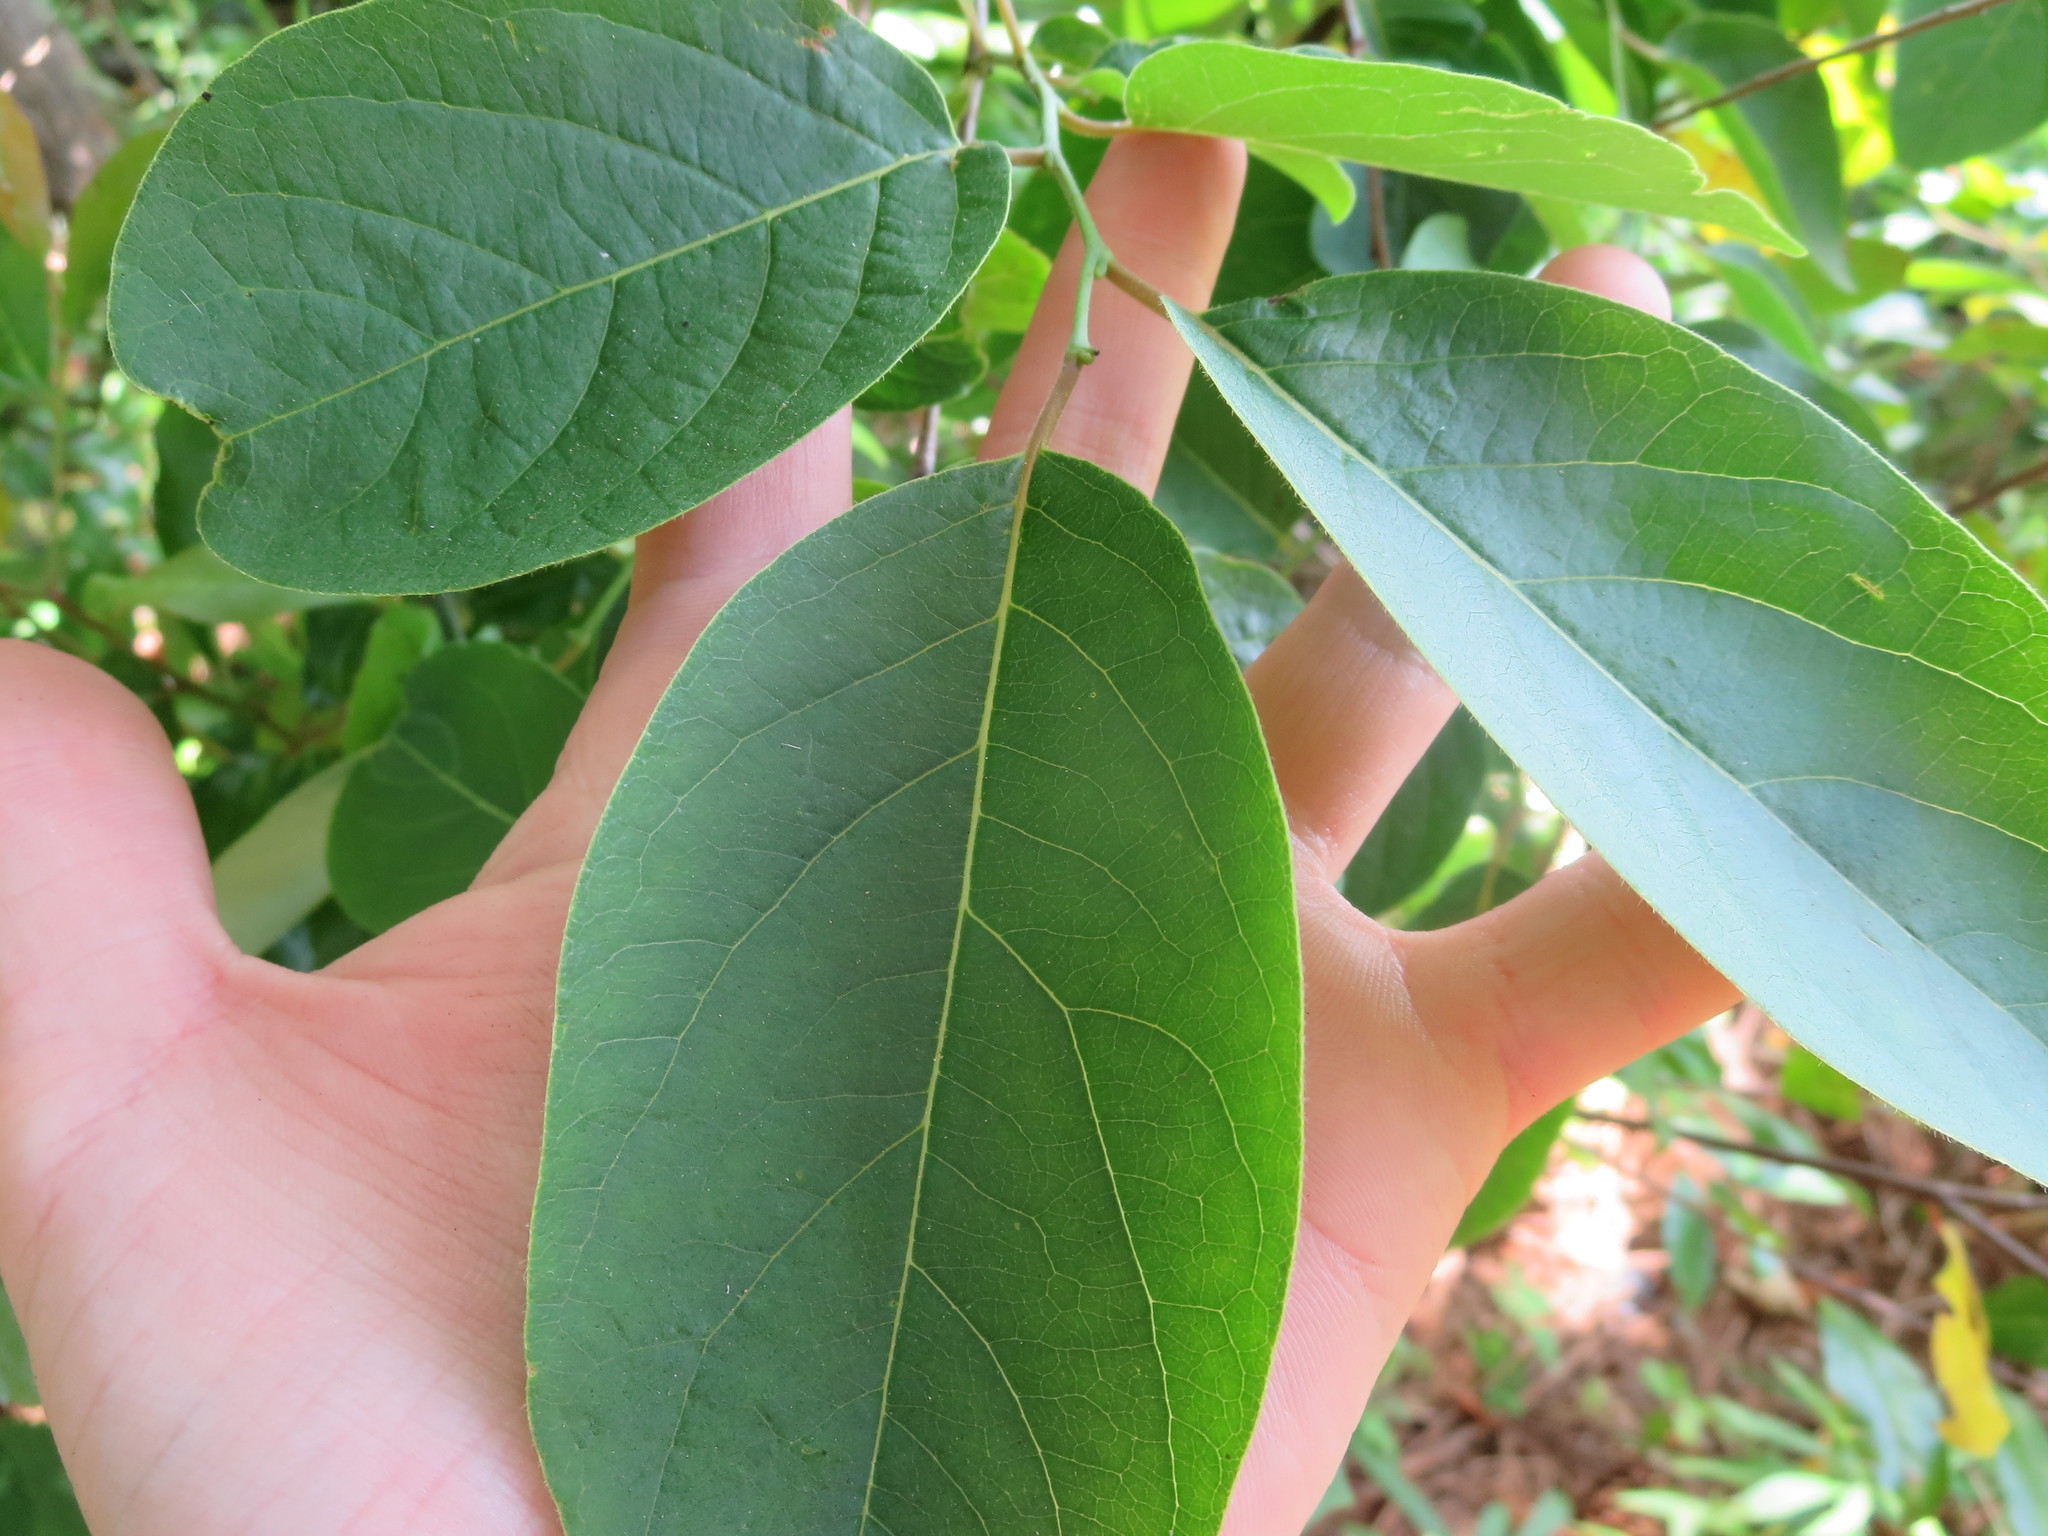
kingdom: Plantae
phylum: Tracheophyta
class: Magnoliopsida
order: Ericales
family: Ebenaceae
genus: Diospyros
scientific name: Diospyros virginiana
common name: Persimmon
